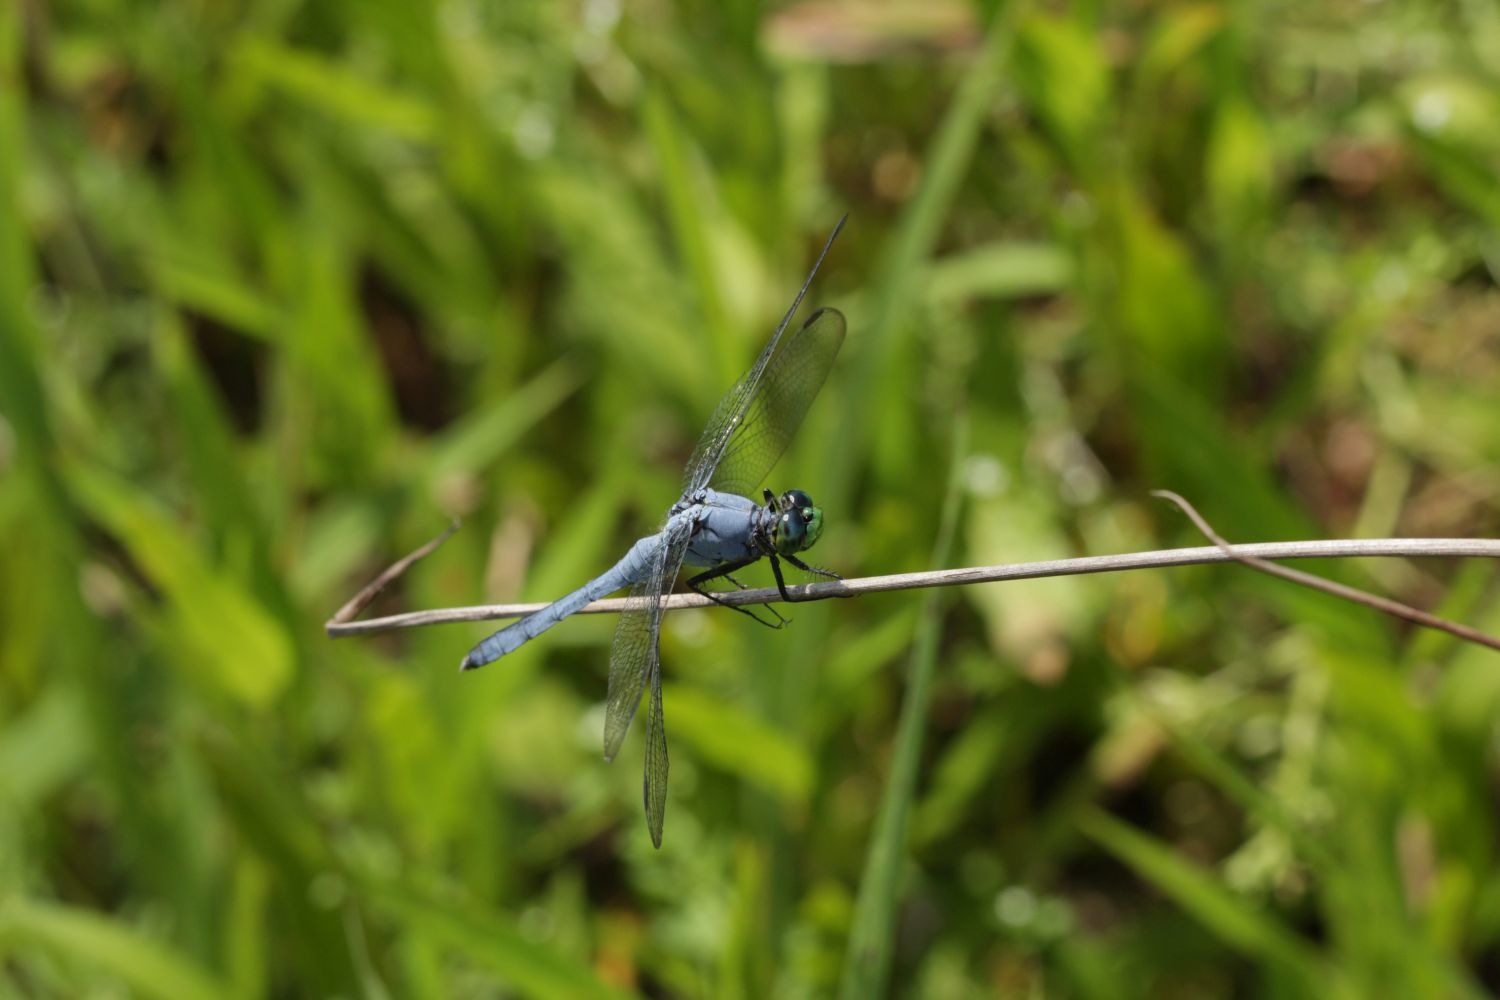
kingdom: Animalia
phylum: Arthropoda
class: Insecta
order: Odonata
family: Libellulidae
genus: Erythemis
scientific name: Erythemis simplicicollis
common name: Eastern pondhawk
